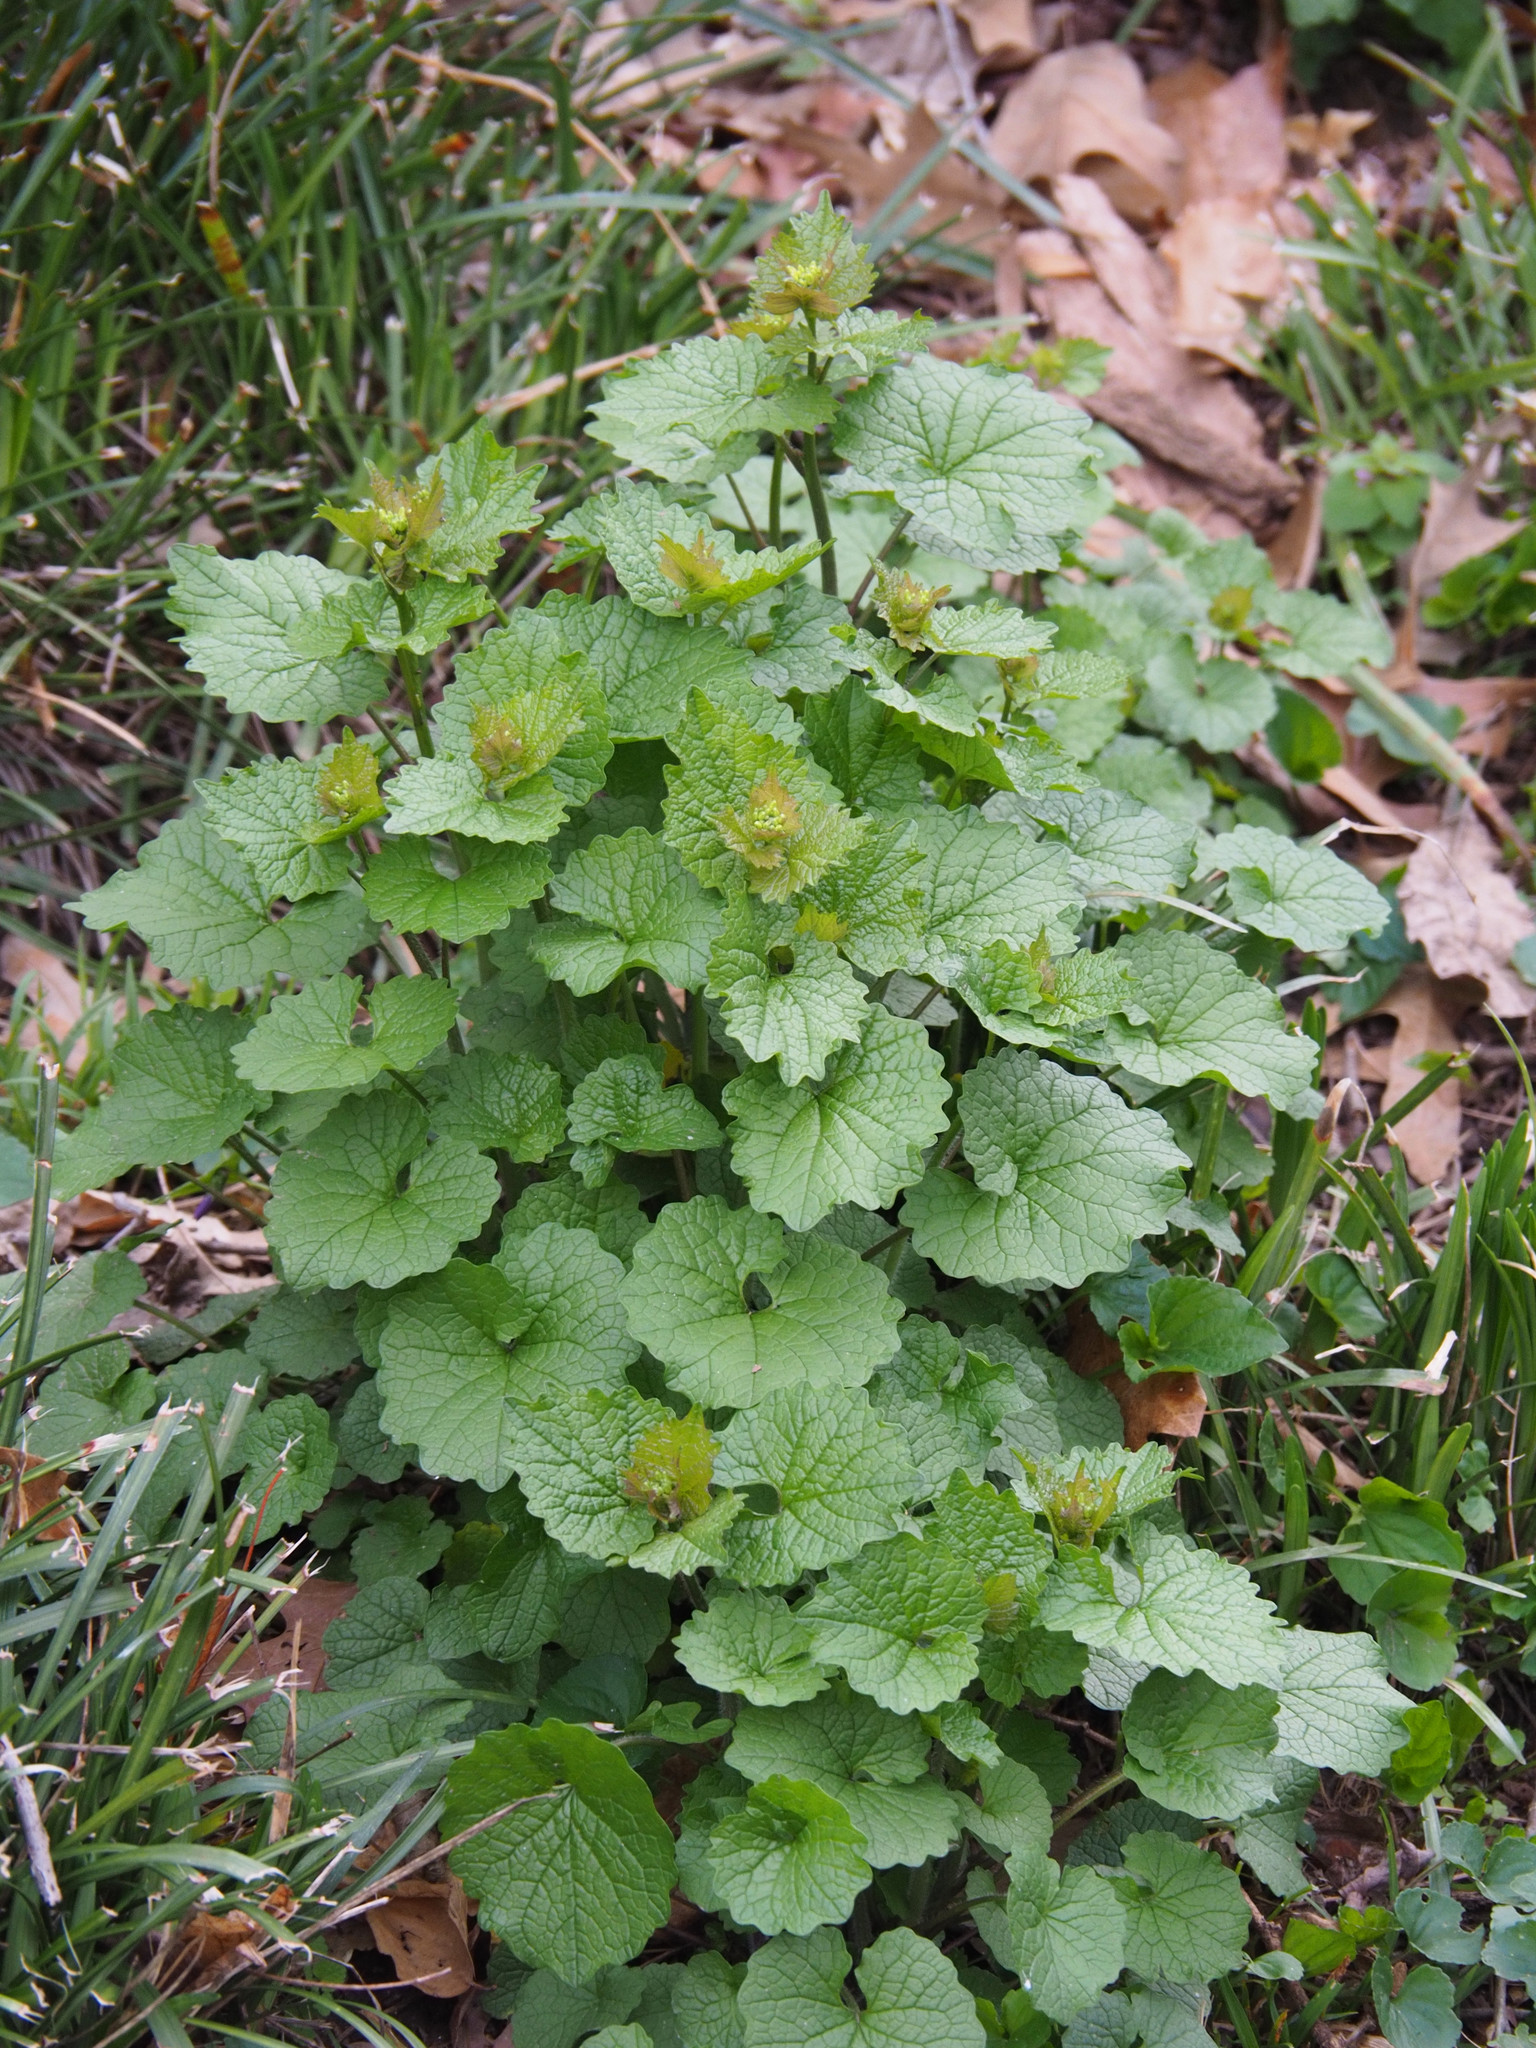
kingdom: Plantae
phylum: Tracheophyta
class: Magnoliopsida
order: Brassicales
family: Brassicaceae
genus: Alliaria
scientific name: Alliaria petiolata
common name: Garlic mustard
